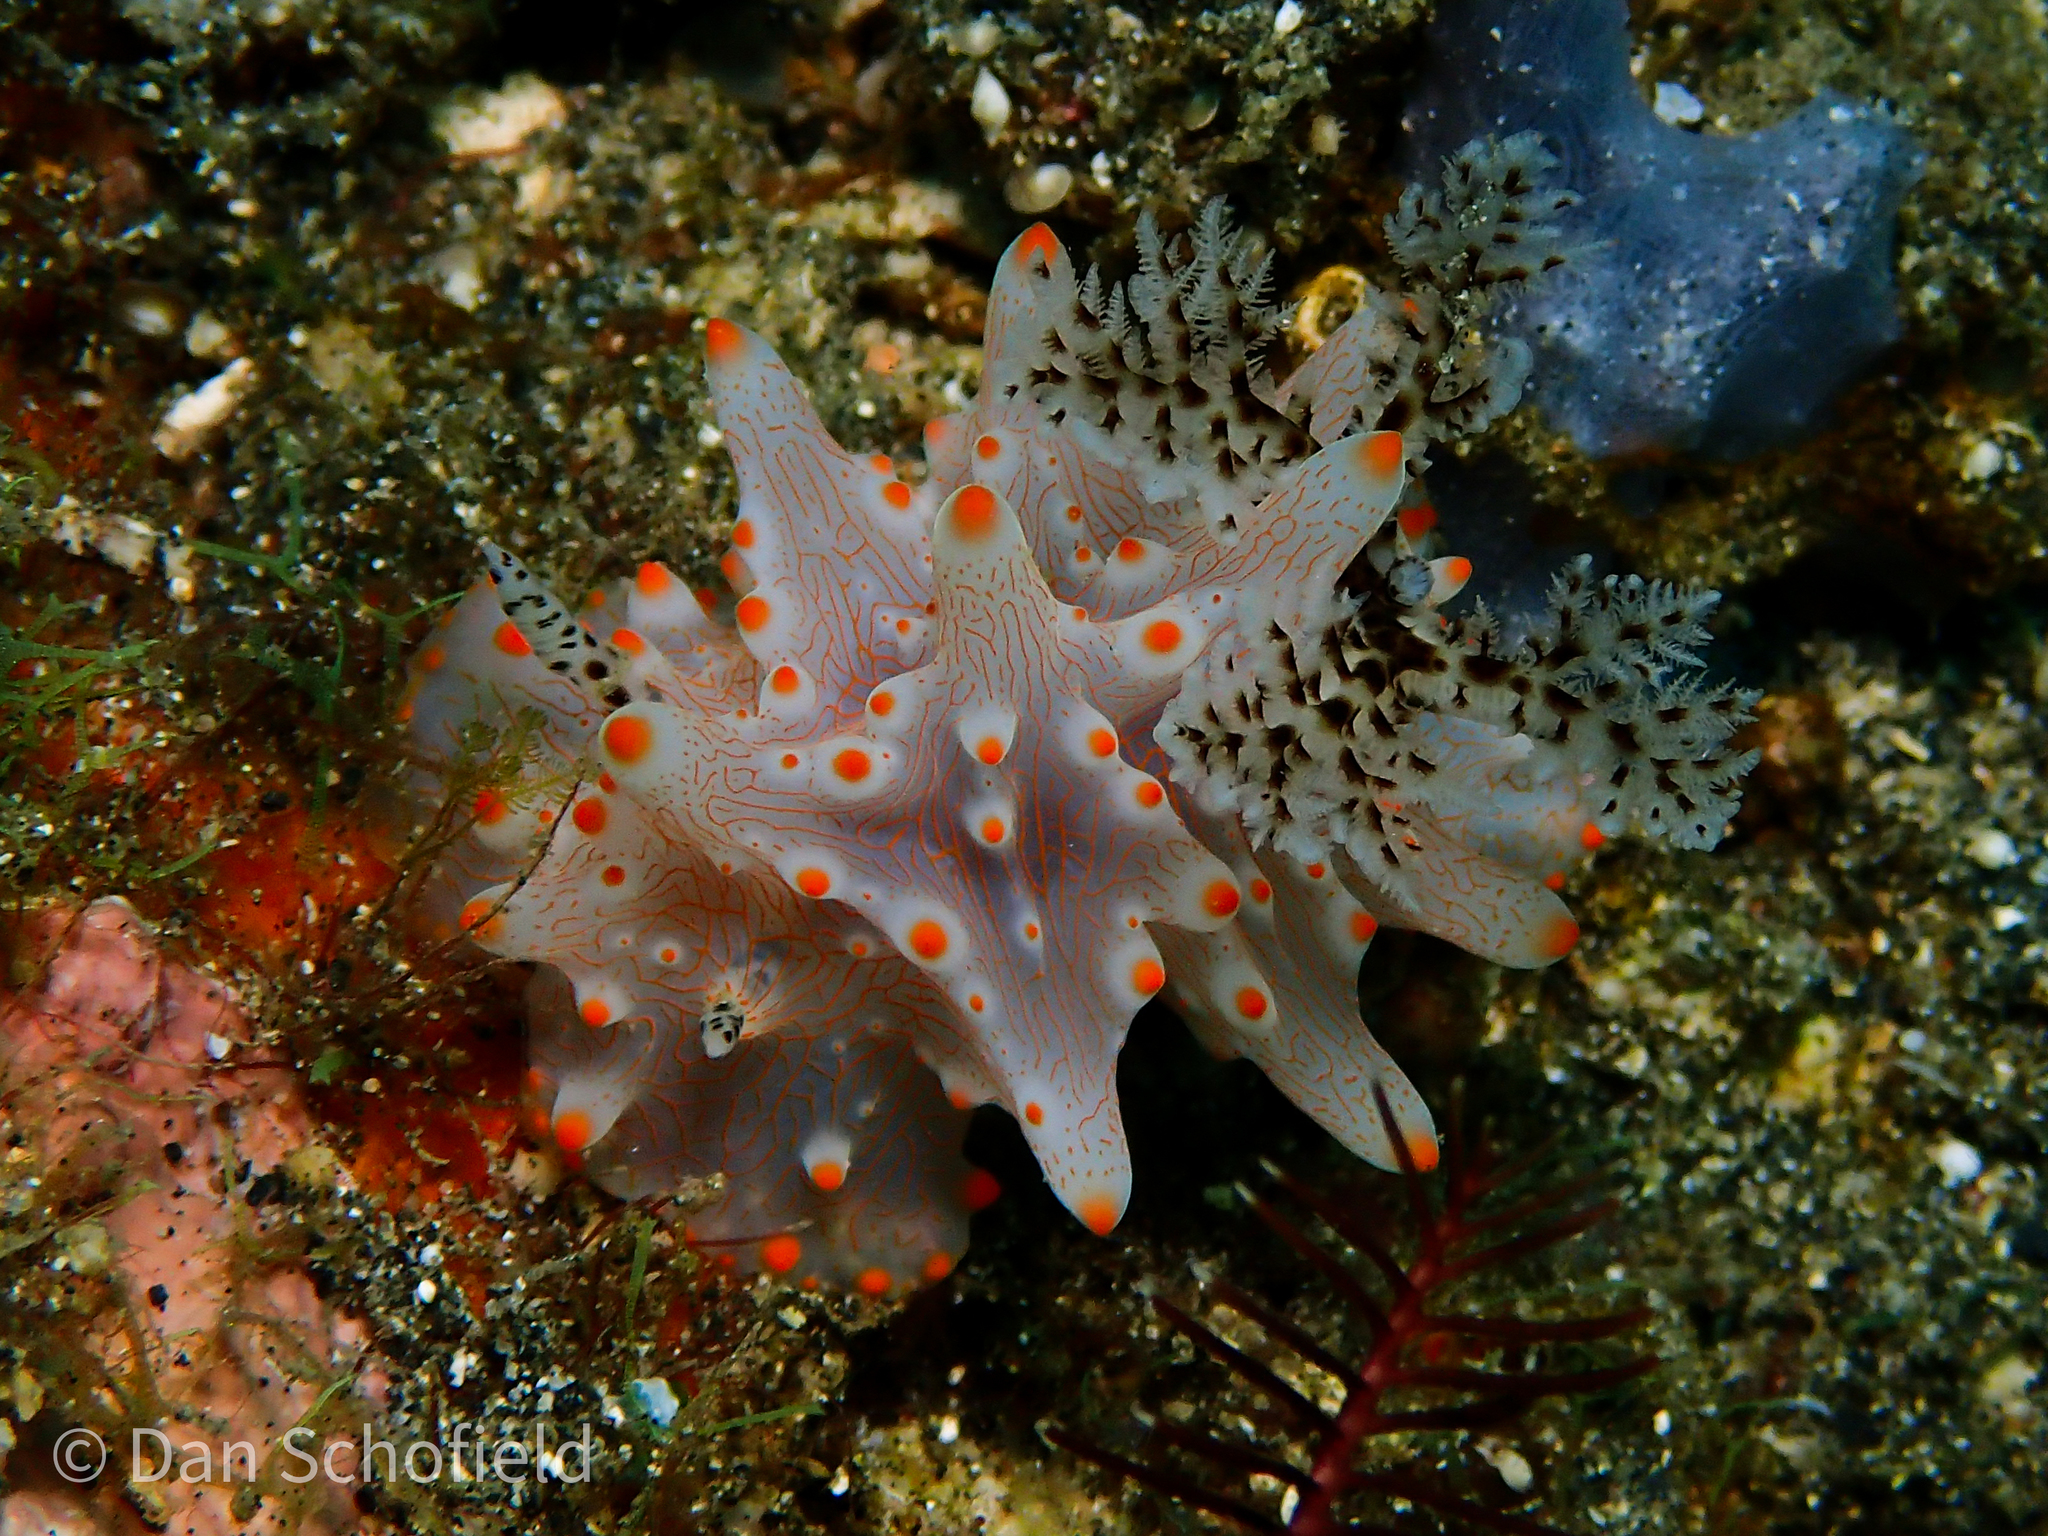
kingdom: Animalia
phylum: Mollusca
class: Gastropoda
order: Nudibranchia
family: Discodorididae
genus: Halgerda
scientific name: Halgerda batangas
